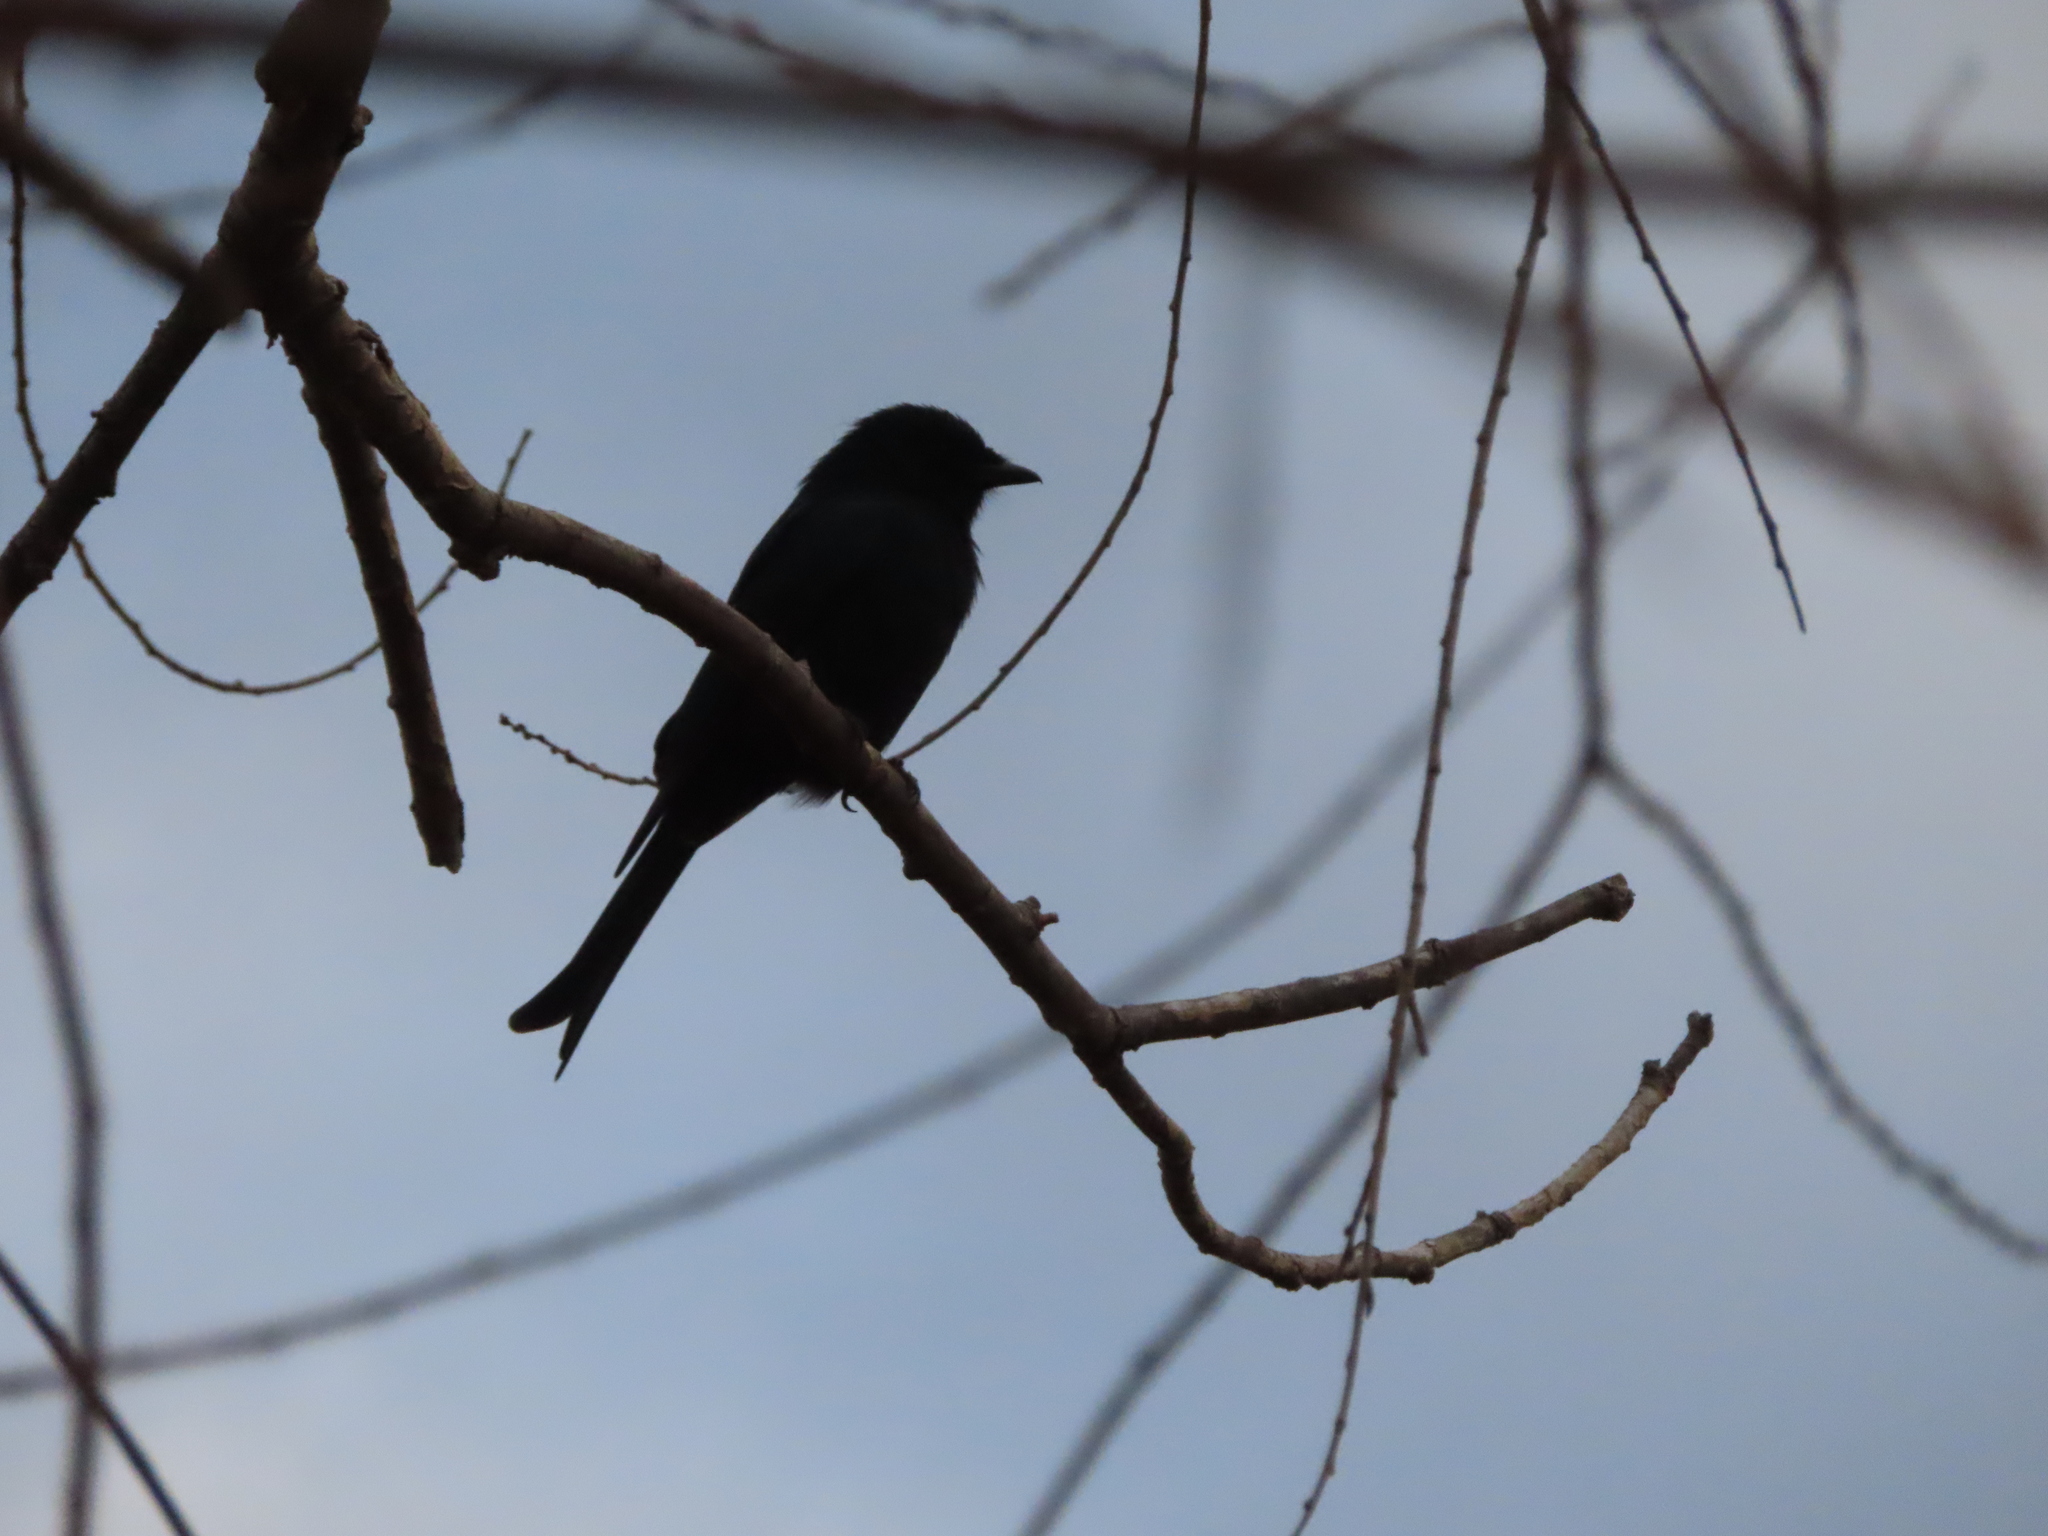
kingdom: Animalia
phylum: Chordata
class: Aves
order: Passeriformes
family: Dicruridae
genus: Dicrurus
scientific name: Dicrurus adsimilis
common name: Fork-tailed drongo
